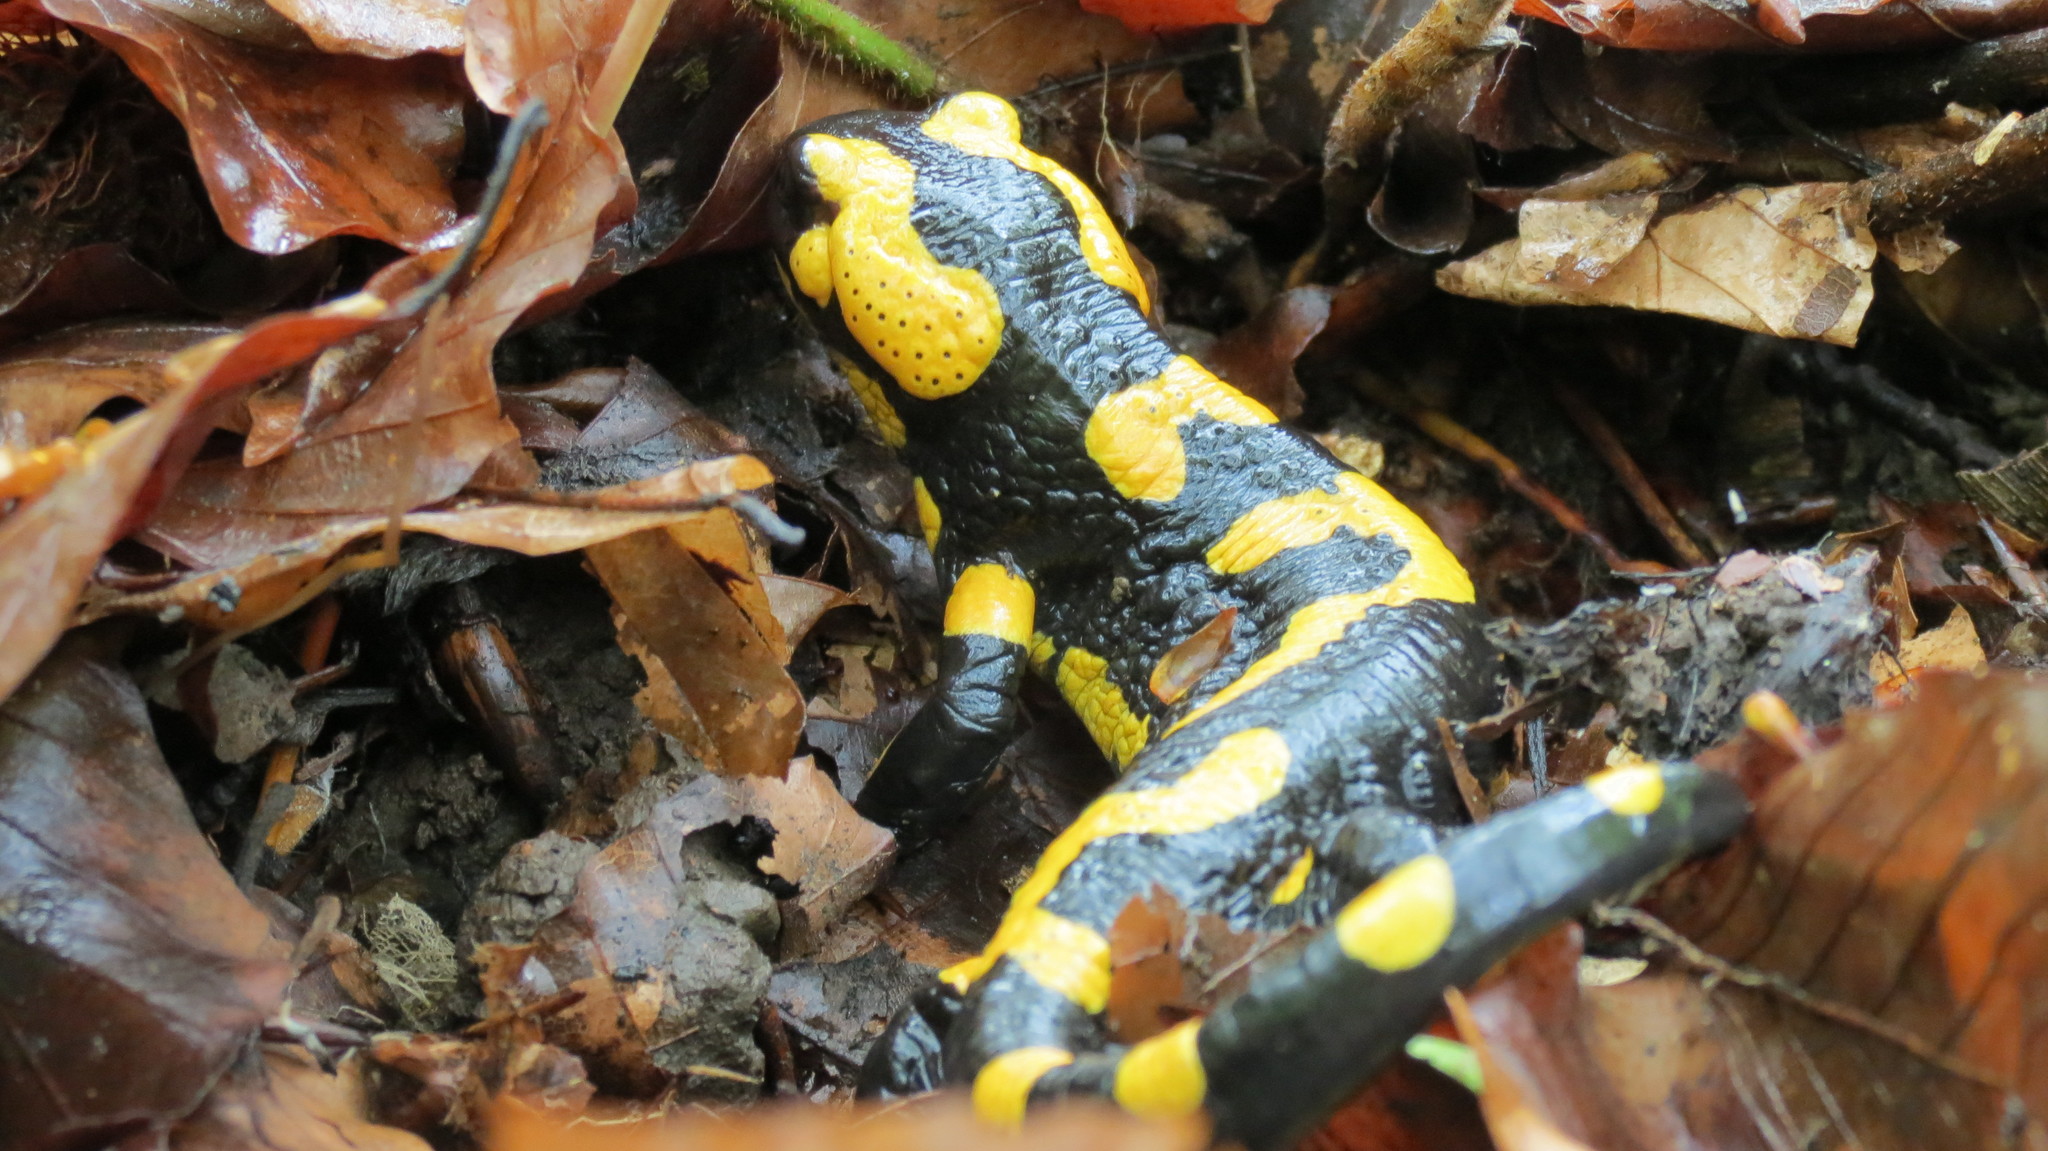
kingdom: Animalia
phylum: Chordata
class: Amphibia
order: Caudata
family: Salamandridae
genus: Salamandra
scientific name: Salamandra salamandra
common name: Fire salamander
